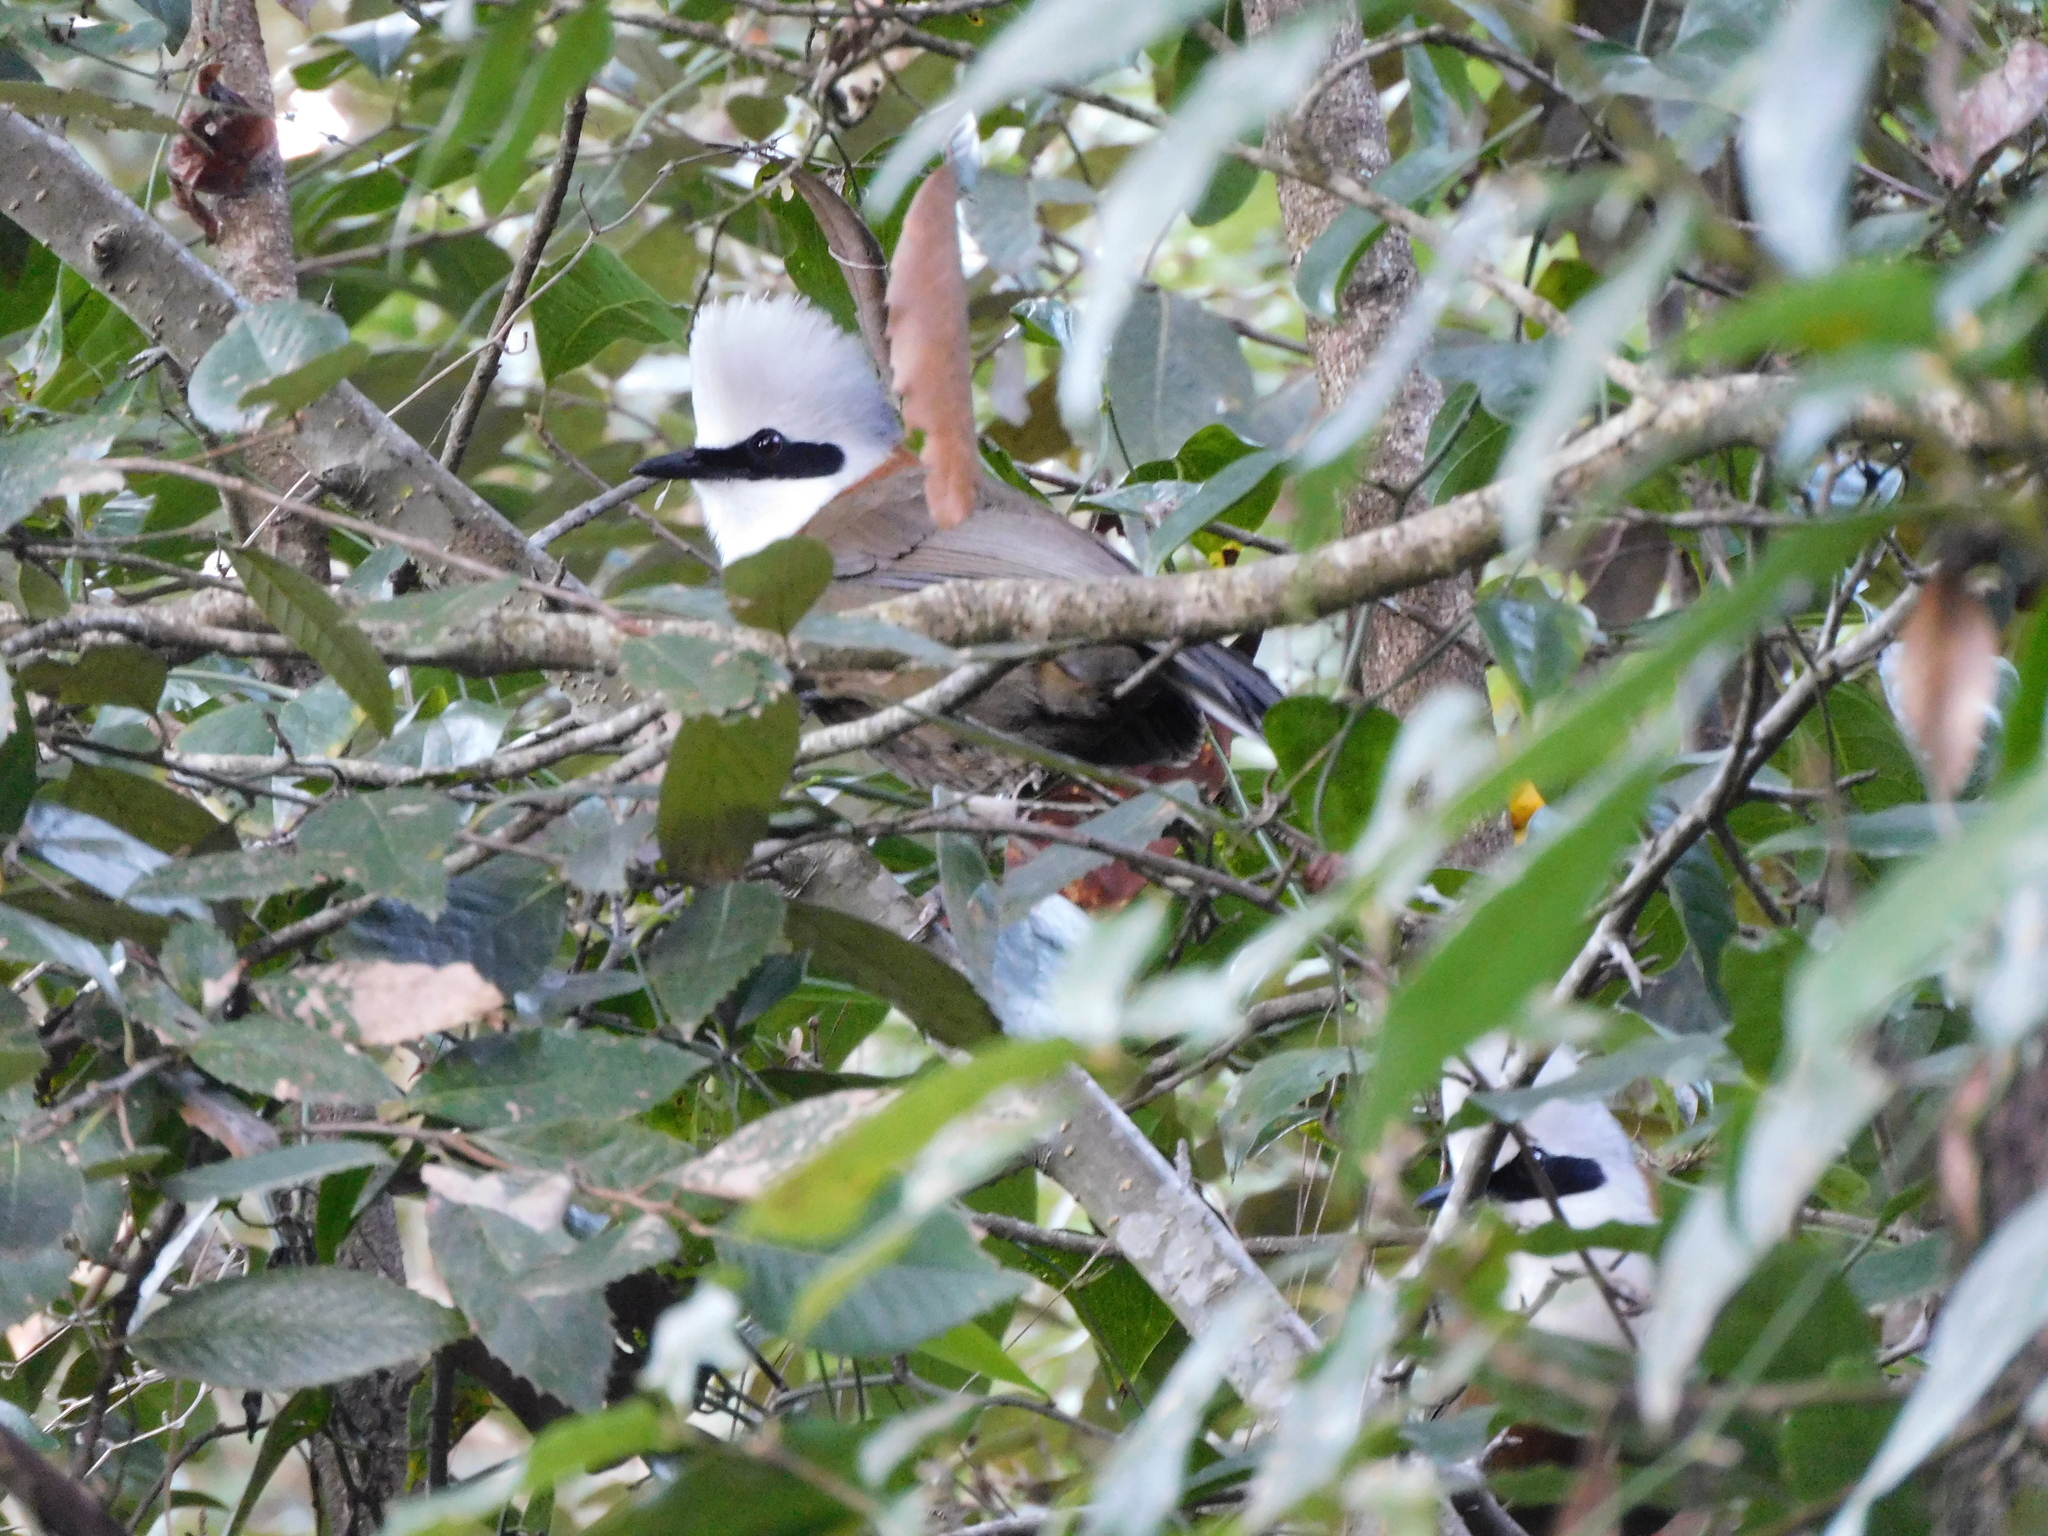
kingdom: Animalia
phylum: Chordata
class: Aves
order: Passeriformes
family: Leiothrichidae
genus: Garrulax
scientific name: Garrulax leucolophus
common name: White-crested laughingthrush
